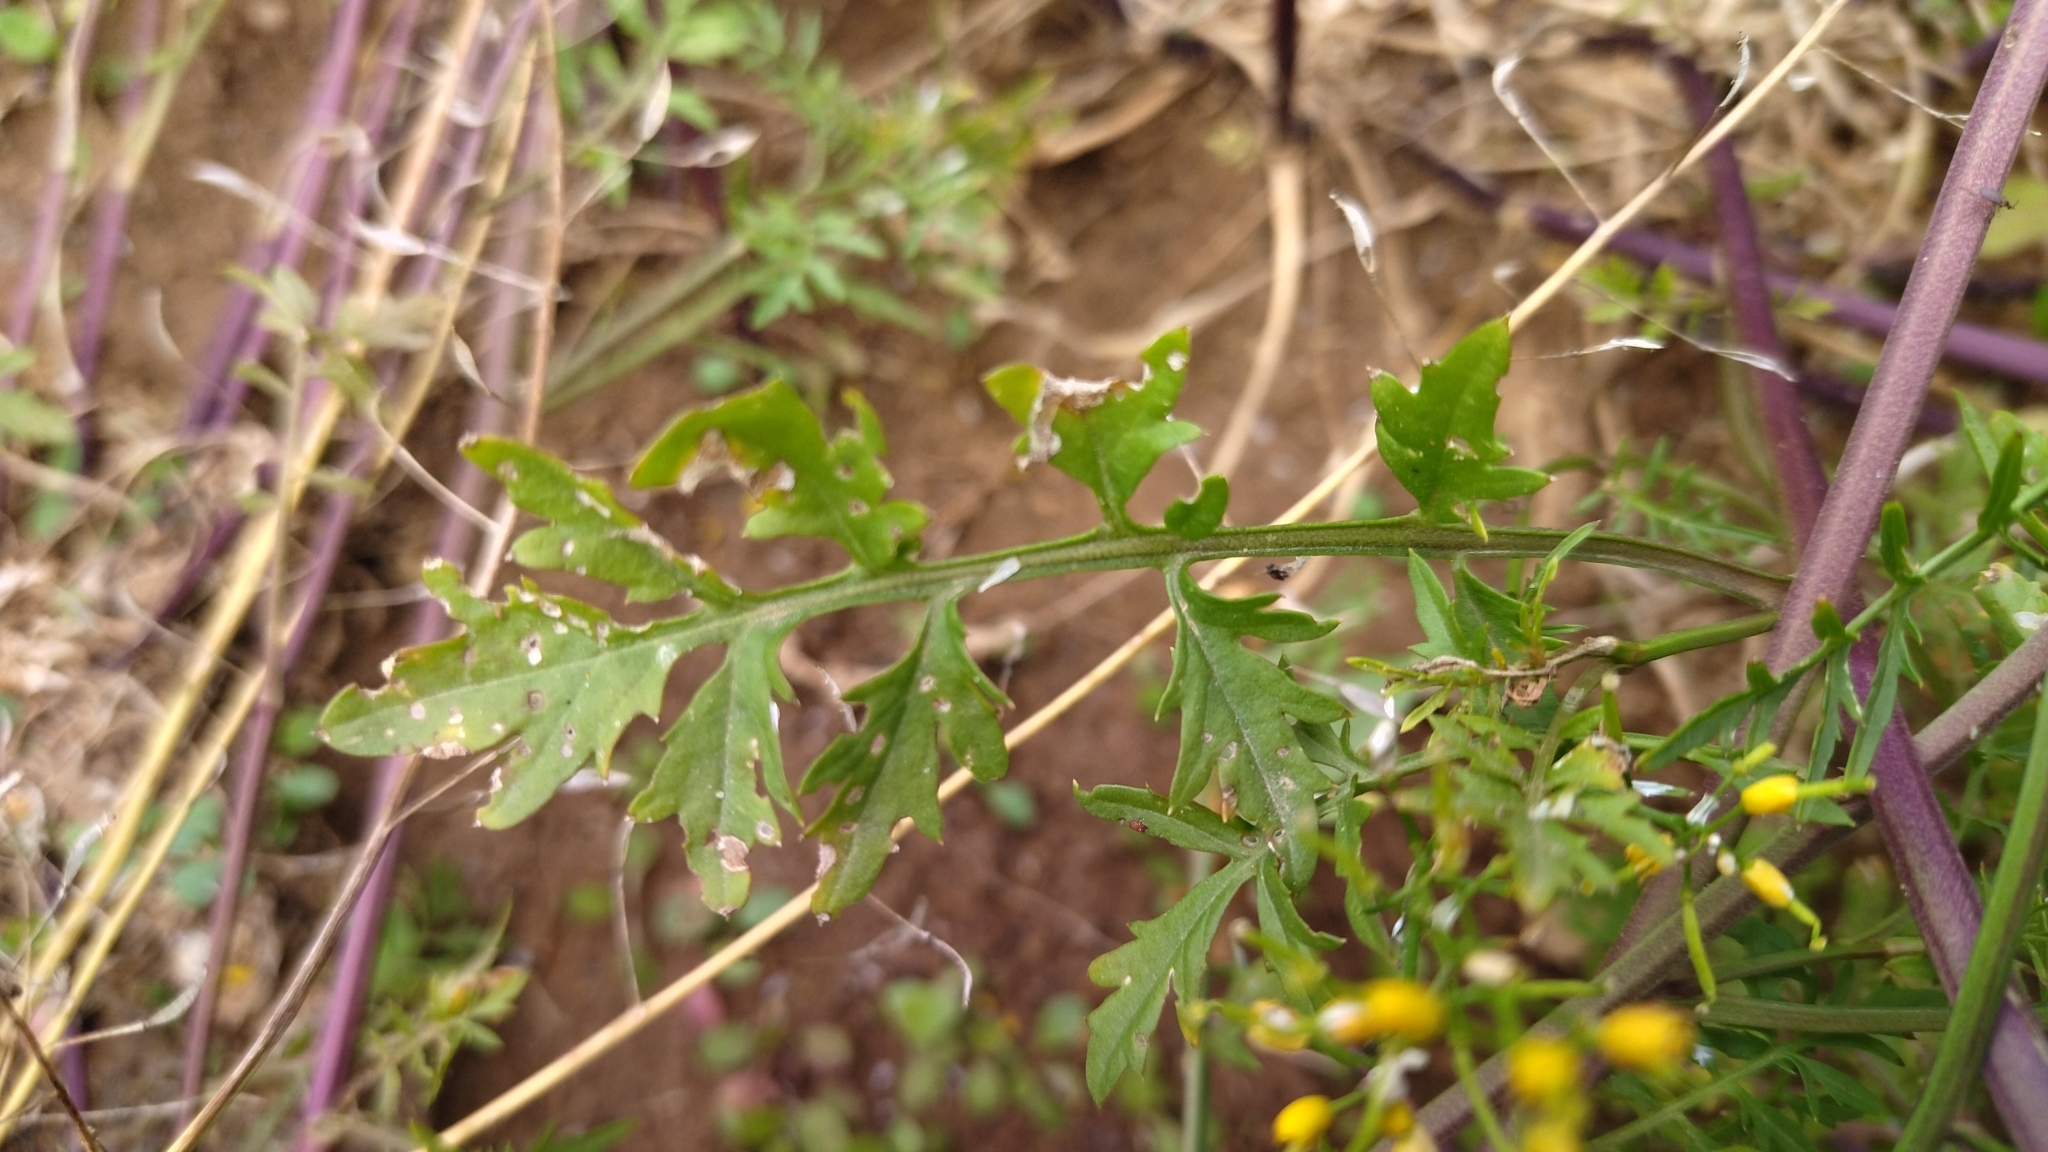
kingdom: Plantae
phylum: Tracheophyta
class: Magnoliopsida
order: Brassicales
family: Brassicaceae
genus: Rorippa
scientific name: Rorippa sylvestris
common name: Creeping yellowcress
